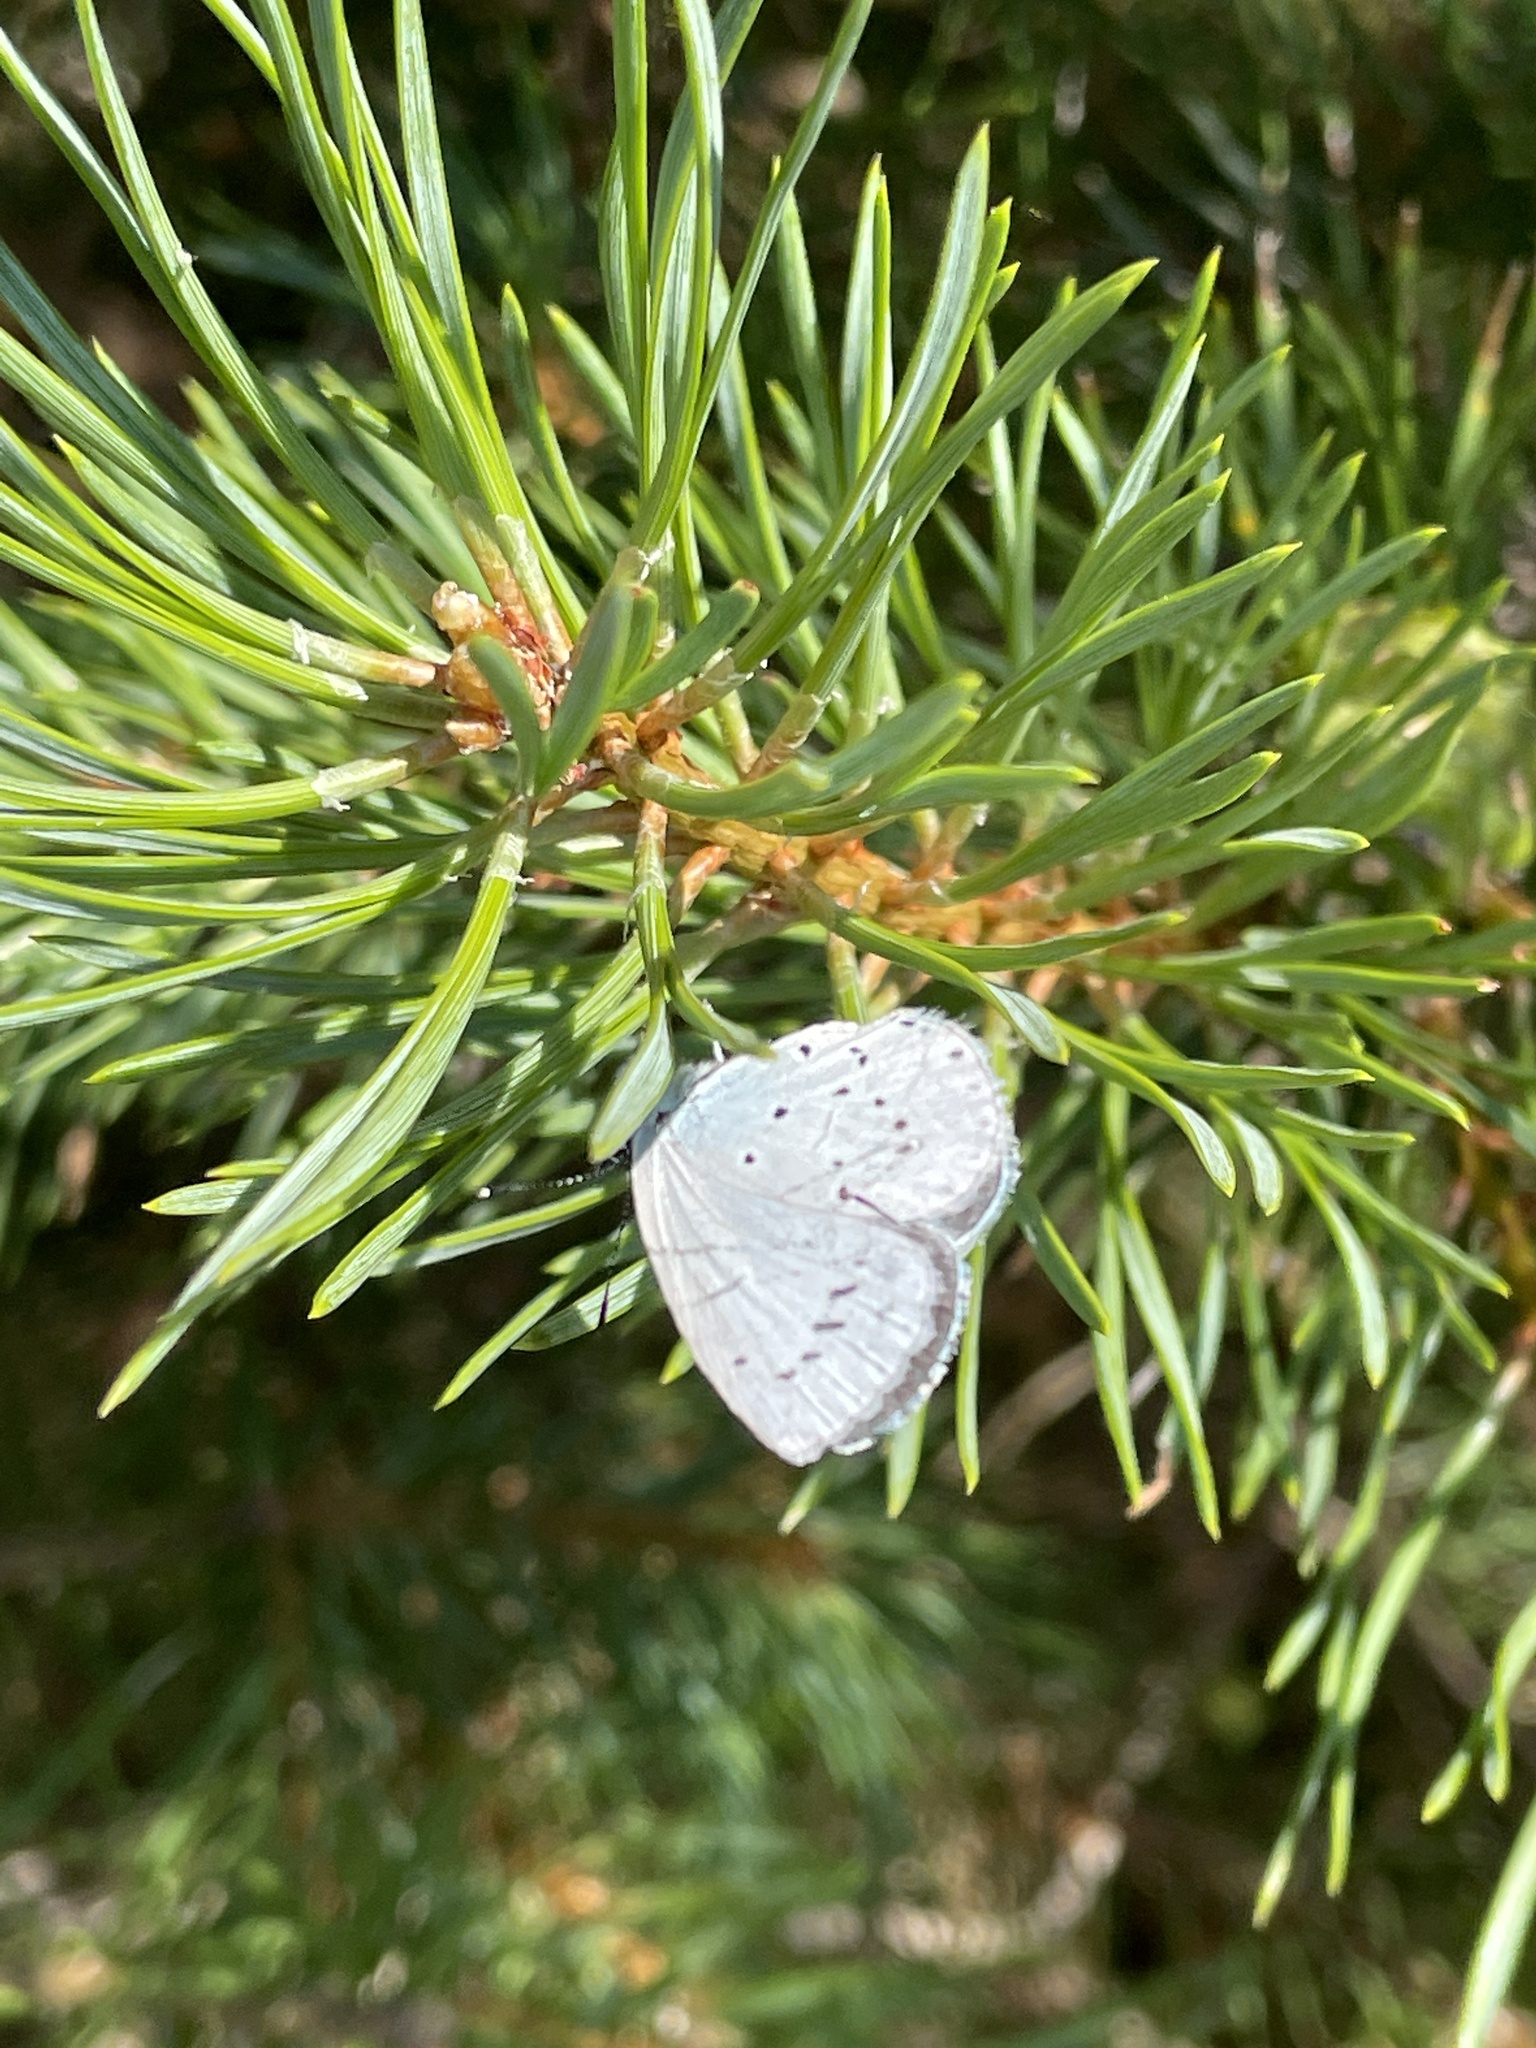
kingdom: Animalia
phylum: Arthropoda
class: Insecta
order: Lepidoptera
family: Lycaenidae
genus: Celastrina
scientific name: Celastrina argiolus
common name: Holly blue
